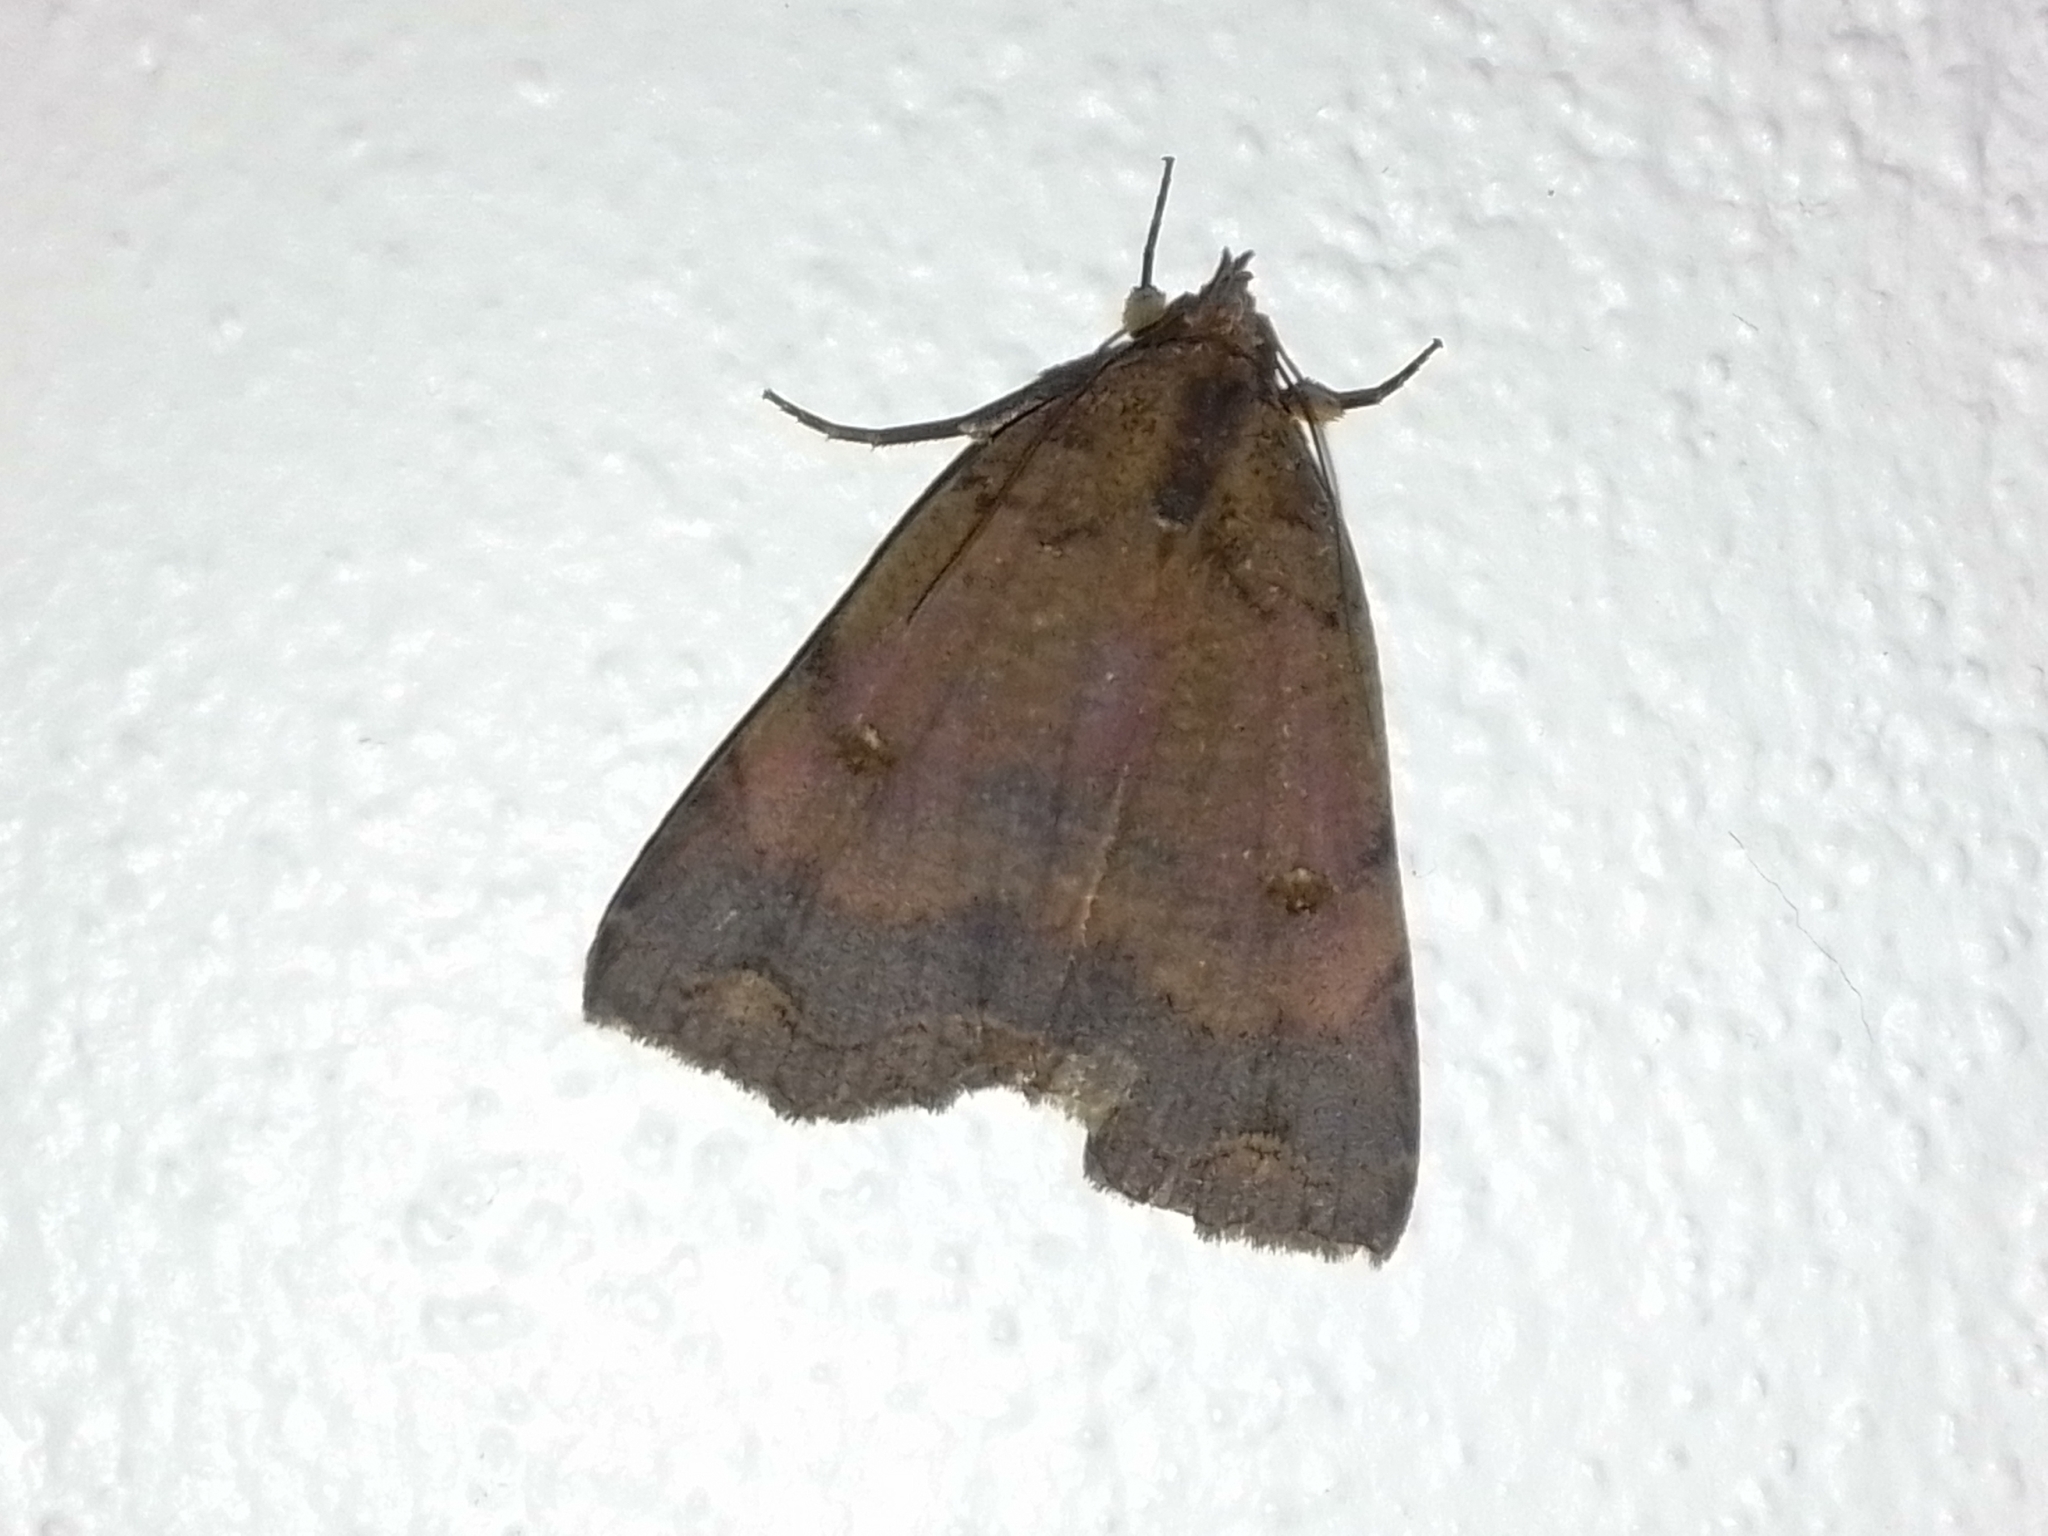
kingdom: Animalia
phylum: Arthropoda
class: Insecta
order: Lepidoptera
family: Erebidae
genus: Pyrgion
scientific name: Pyrgion repanda
